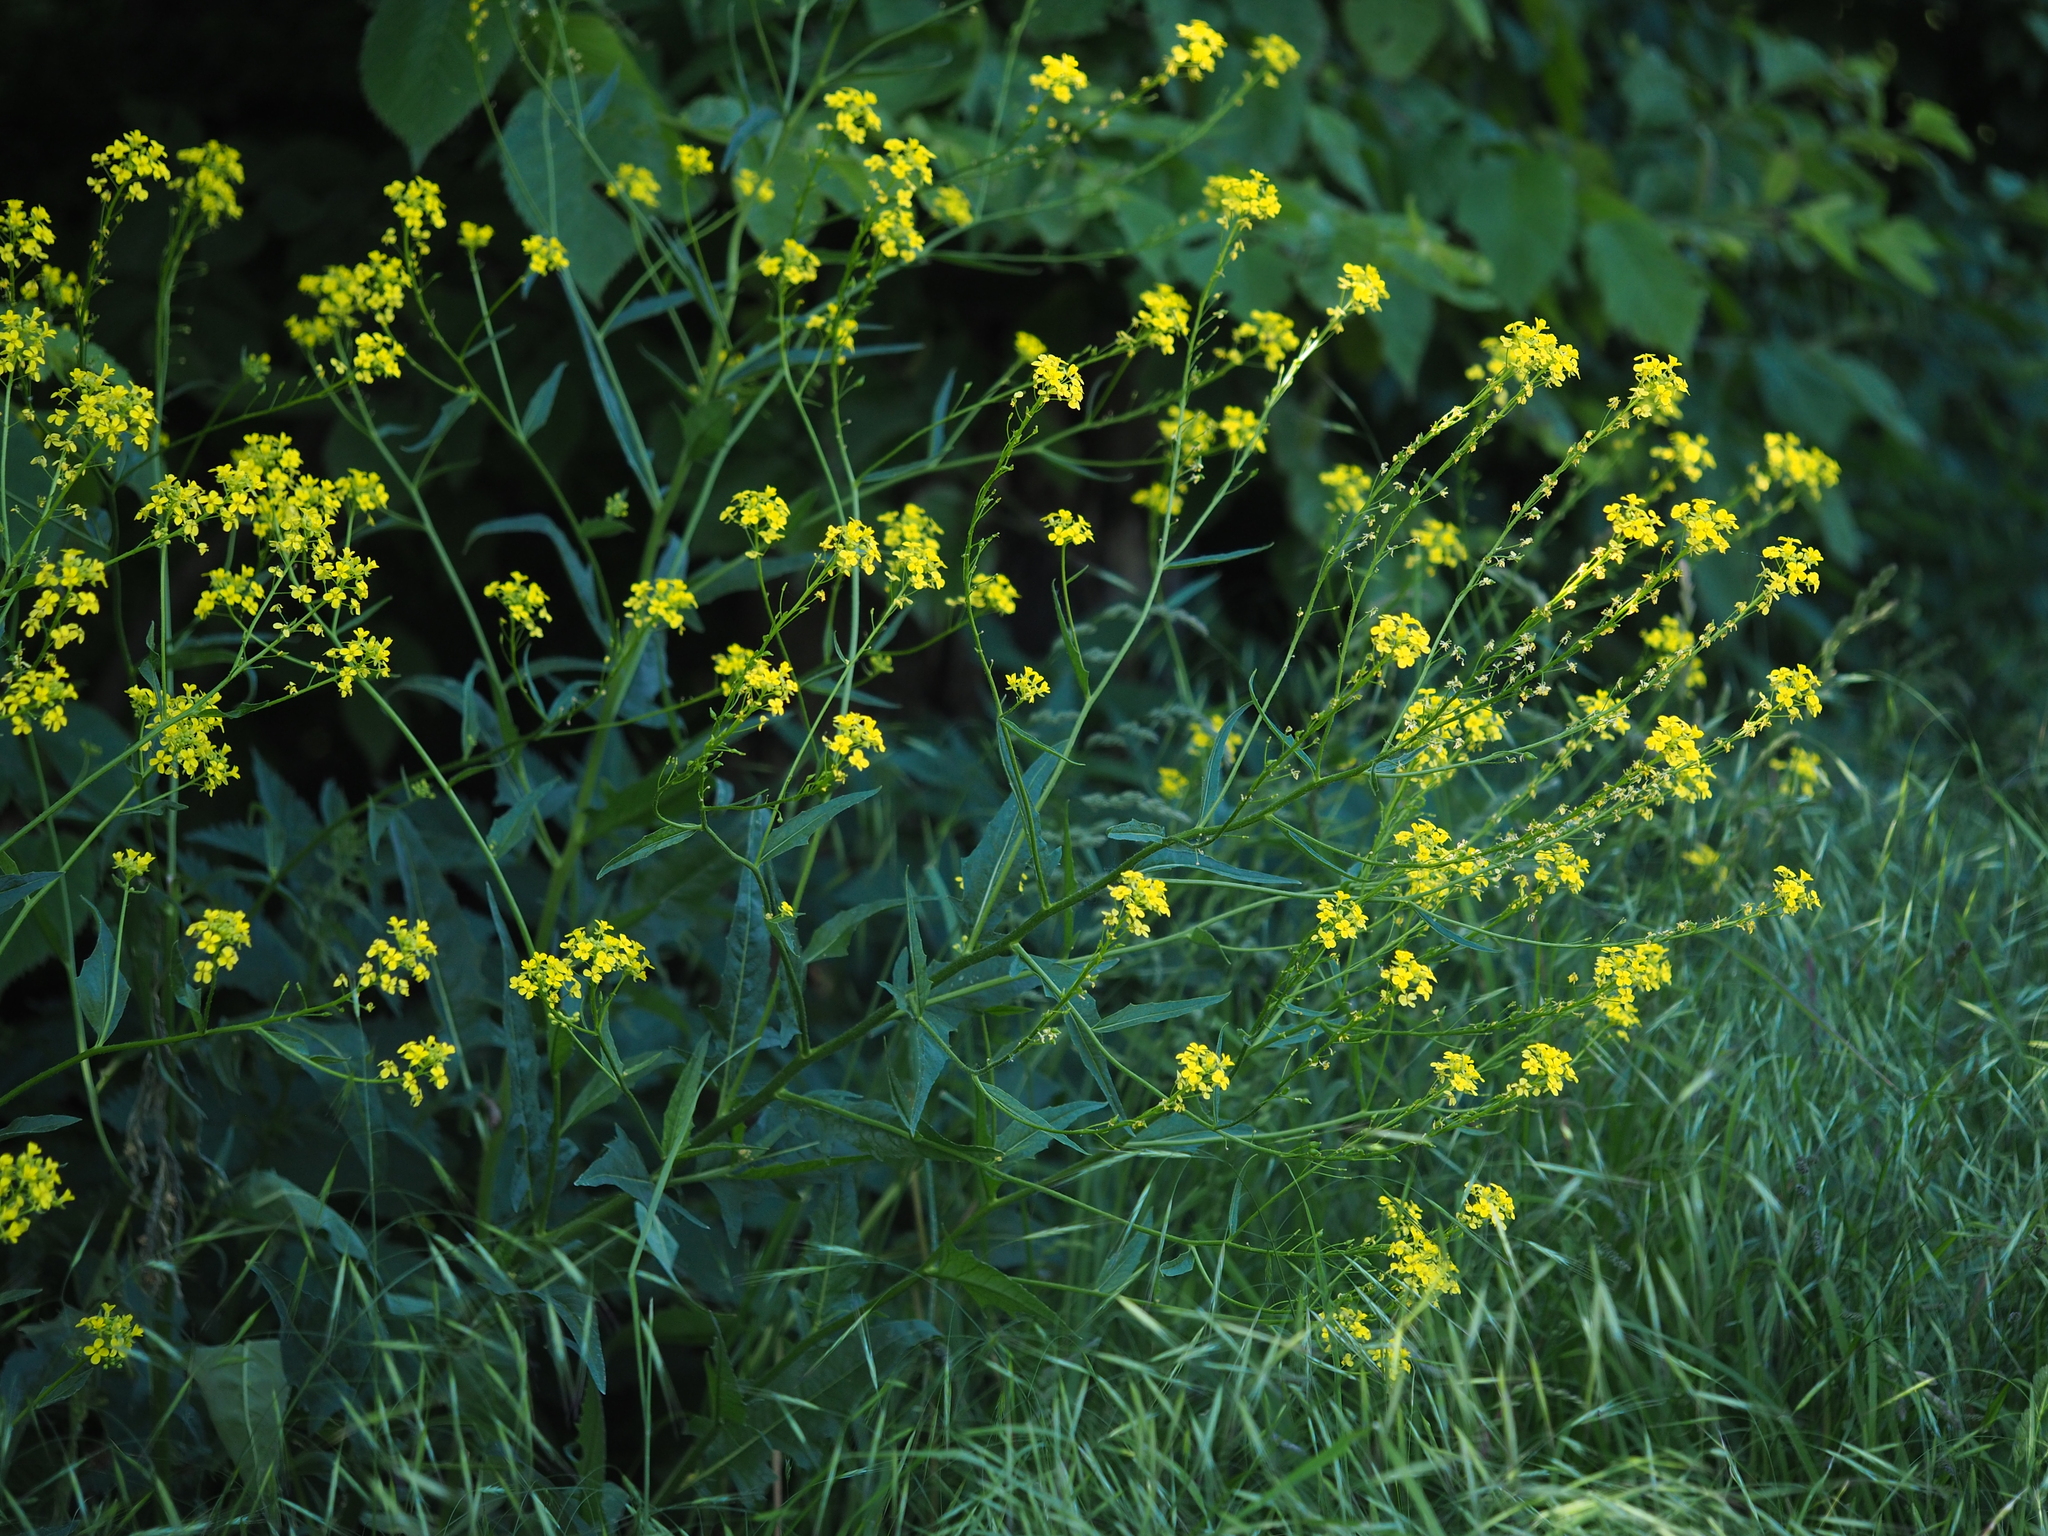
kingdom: Plantae
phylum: Tracheophyta
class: Magnoliopsida
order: Brassicales
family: Brassicaceae
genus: Bunias
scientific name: Bunias orientalis
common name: Warty-cabbage
